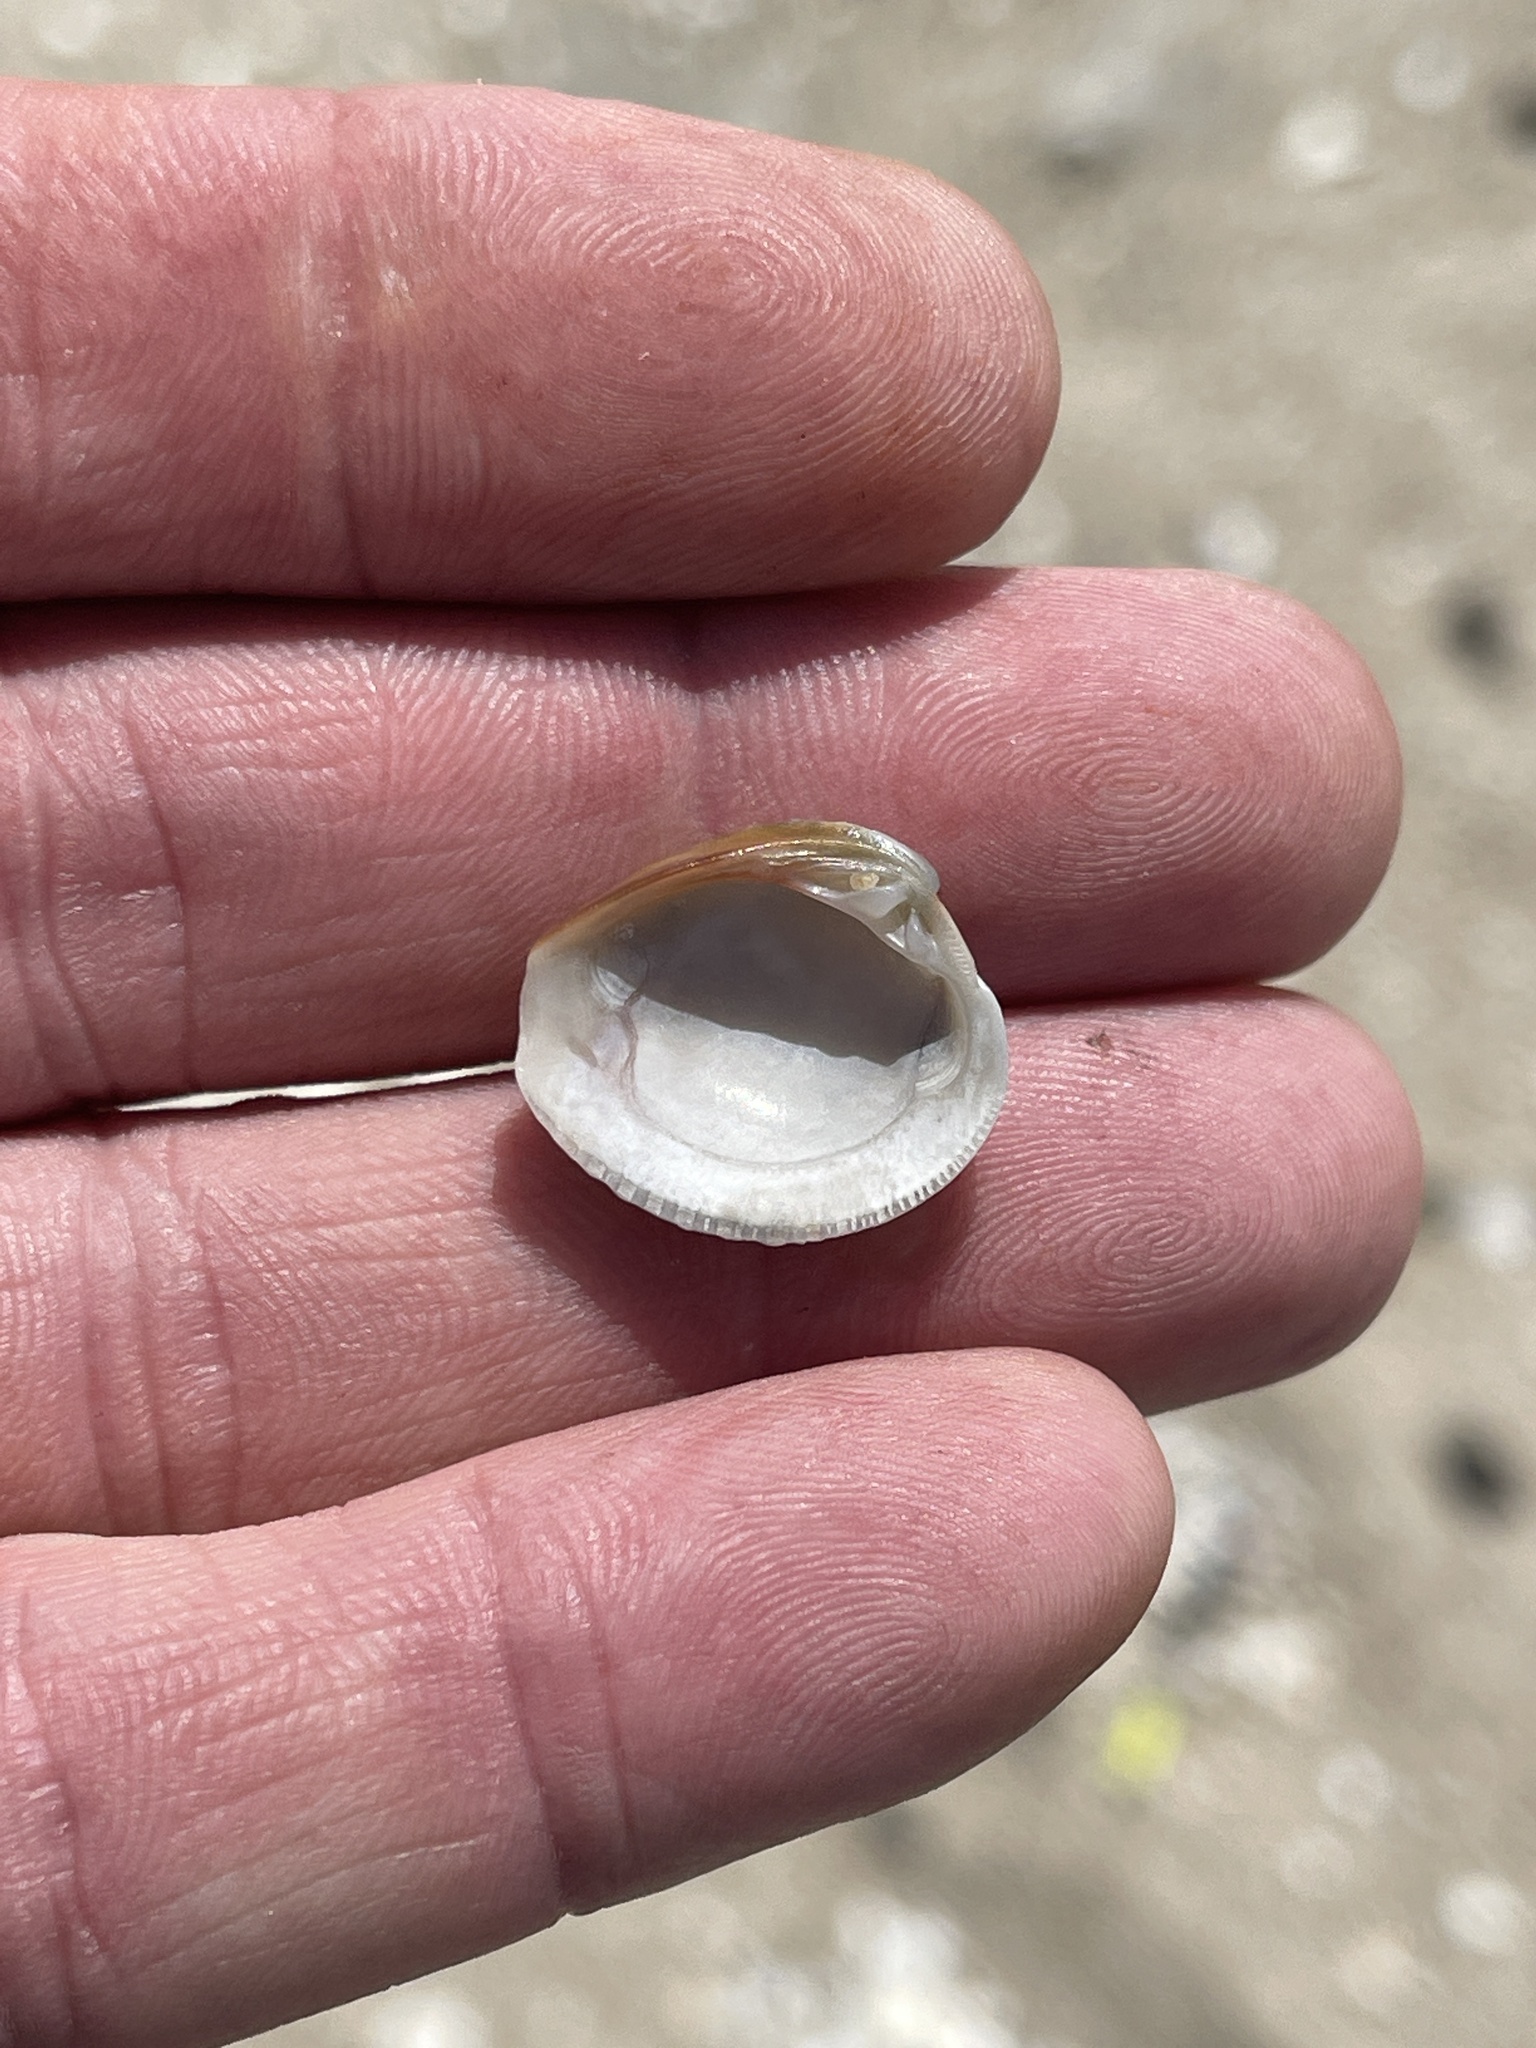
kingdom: Animalia
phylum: Mollusca
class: Bivalvia
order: Venerida
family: Veneridae
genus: Chione
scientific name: Chione elevata
